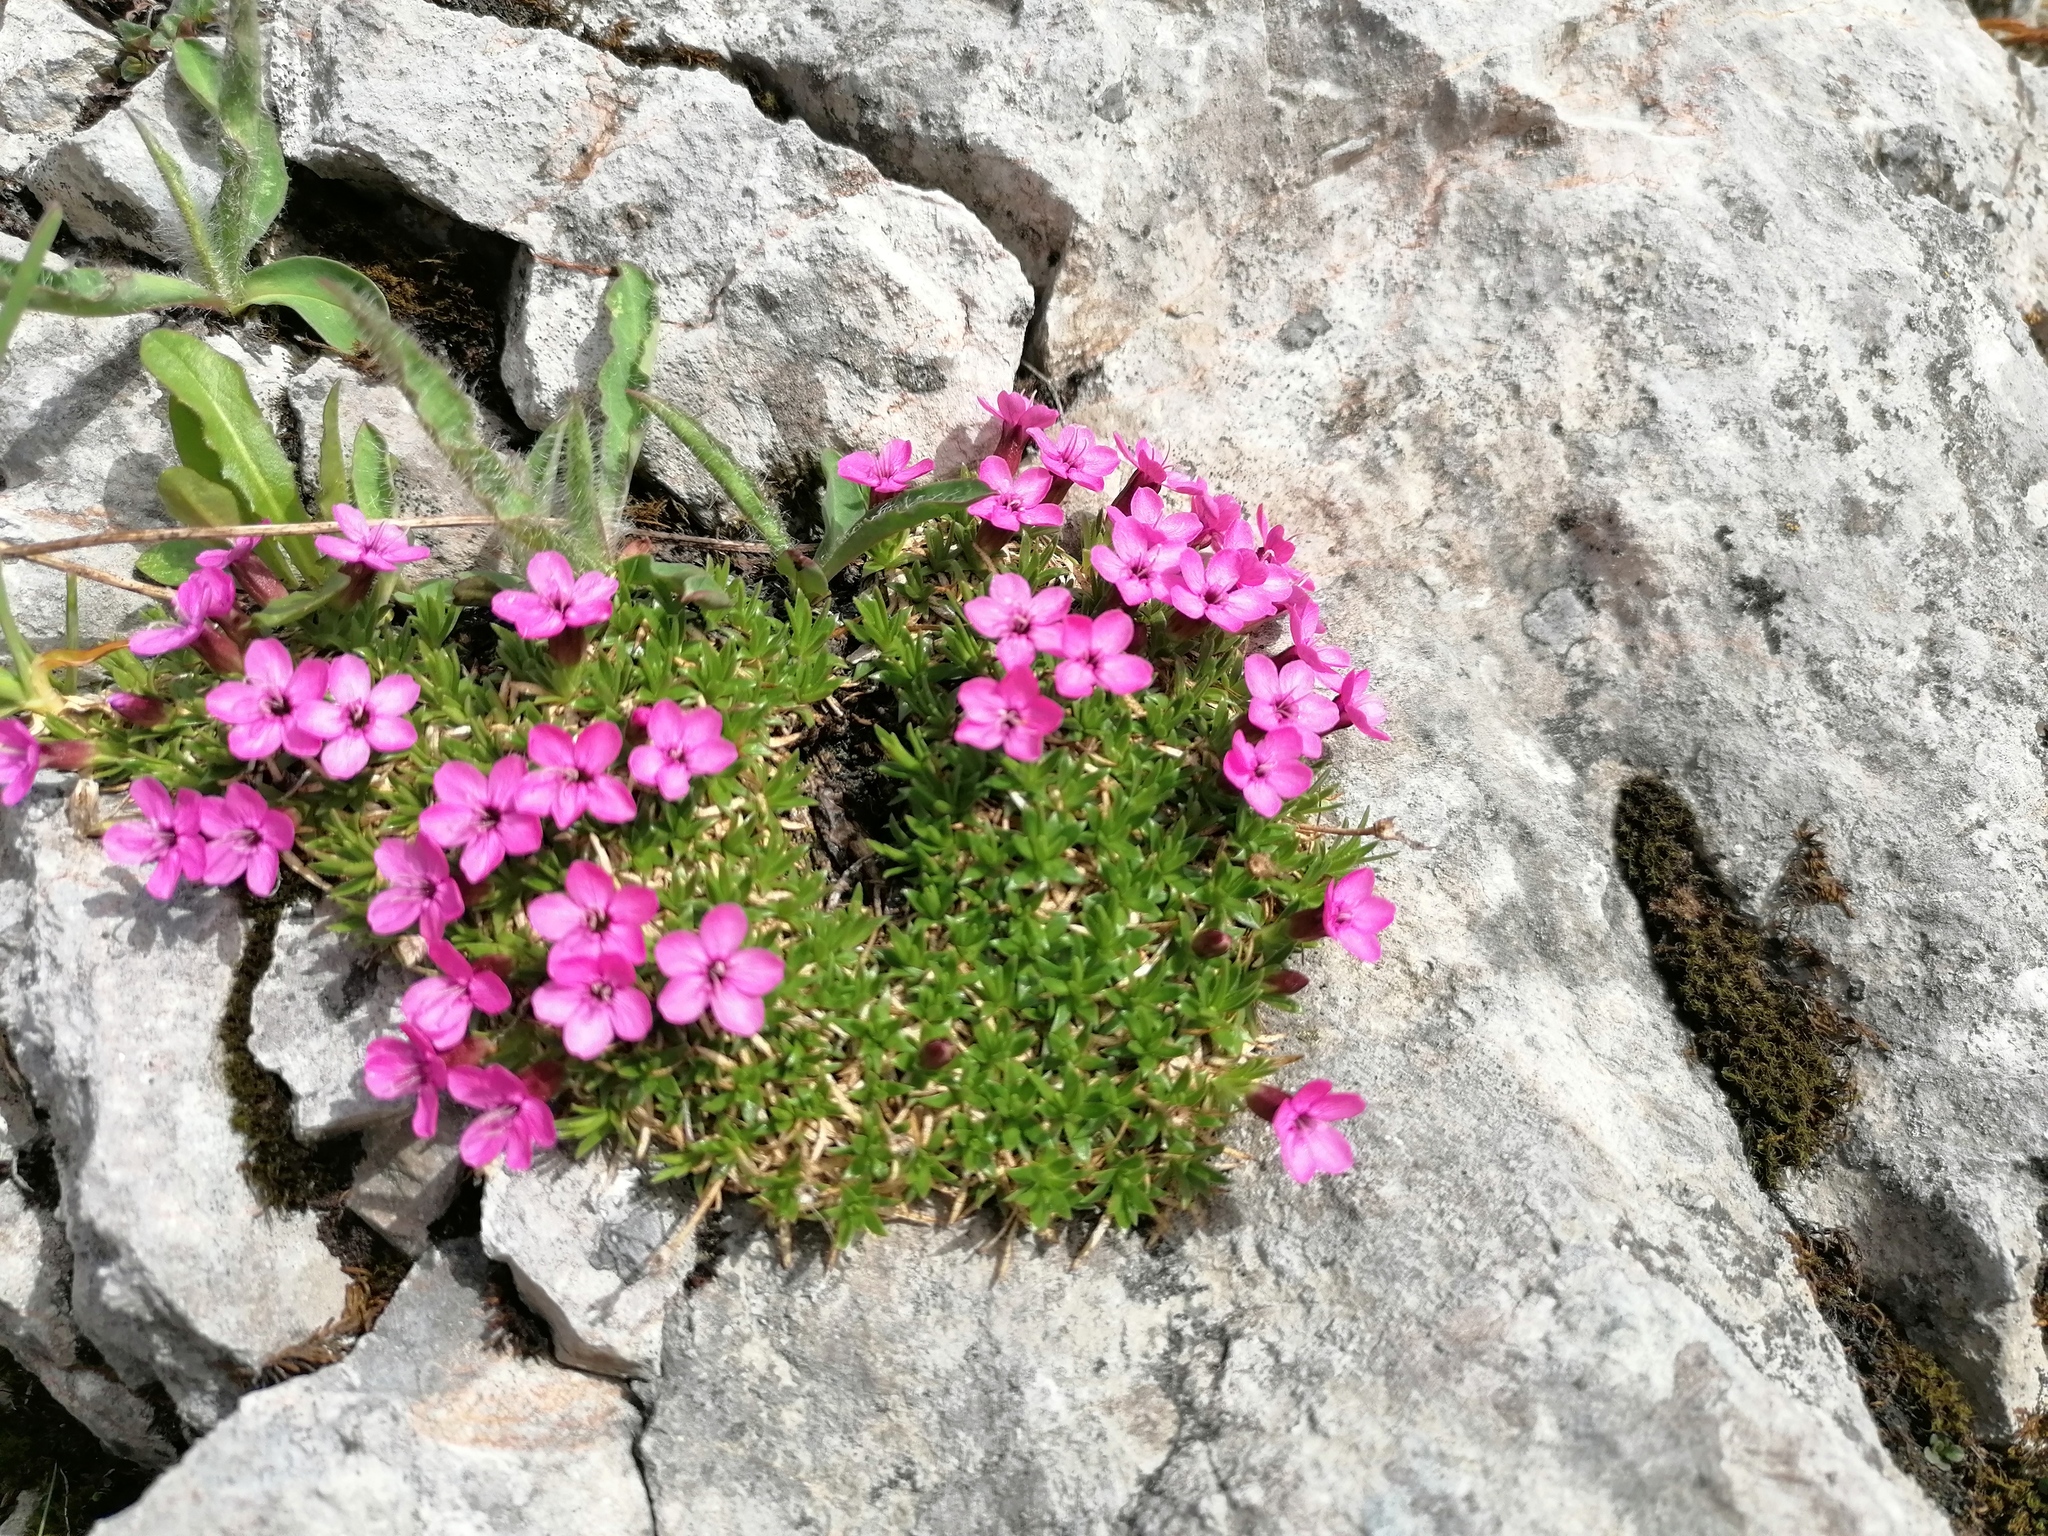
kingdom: Plantae
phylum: Tracheophyta
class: Magnoliopsida
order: Caryophyllales
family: Caryophyllaceae
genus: Silene
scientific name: Silene acaulis
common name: Moss campion
